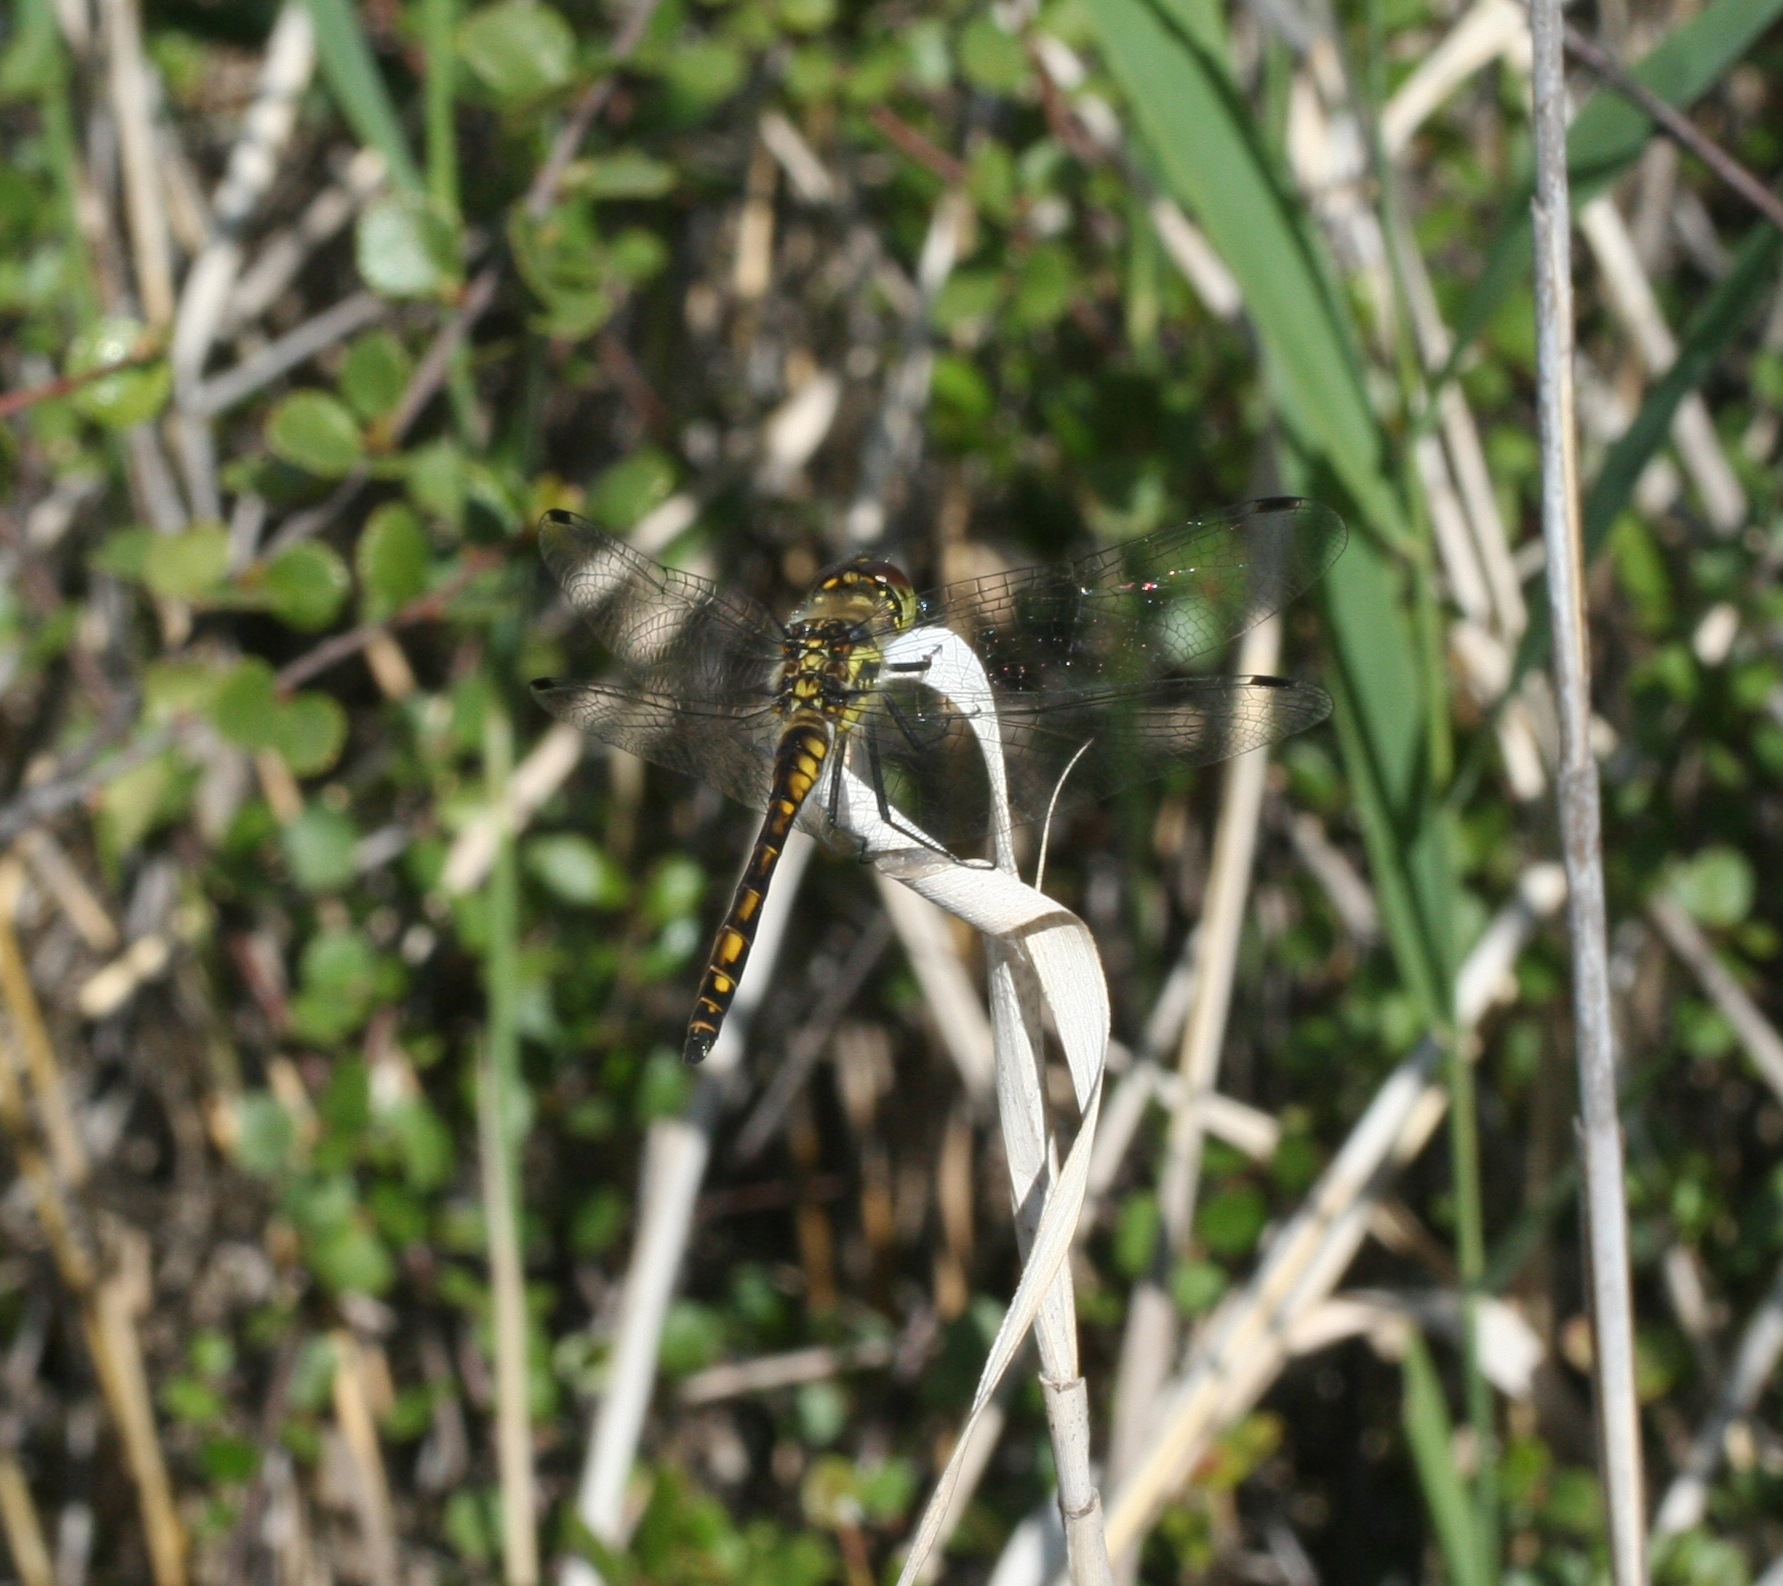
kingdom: Animalia
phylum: Arthropoda
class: Insecta
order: Odonata
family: Libellulidae
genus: Sympetrum
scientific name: Sympetrum danae
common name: Black darter
